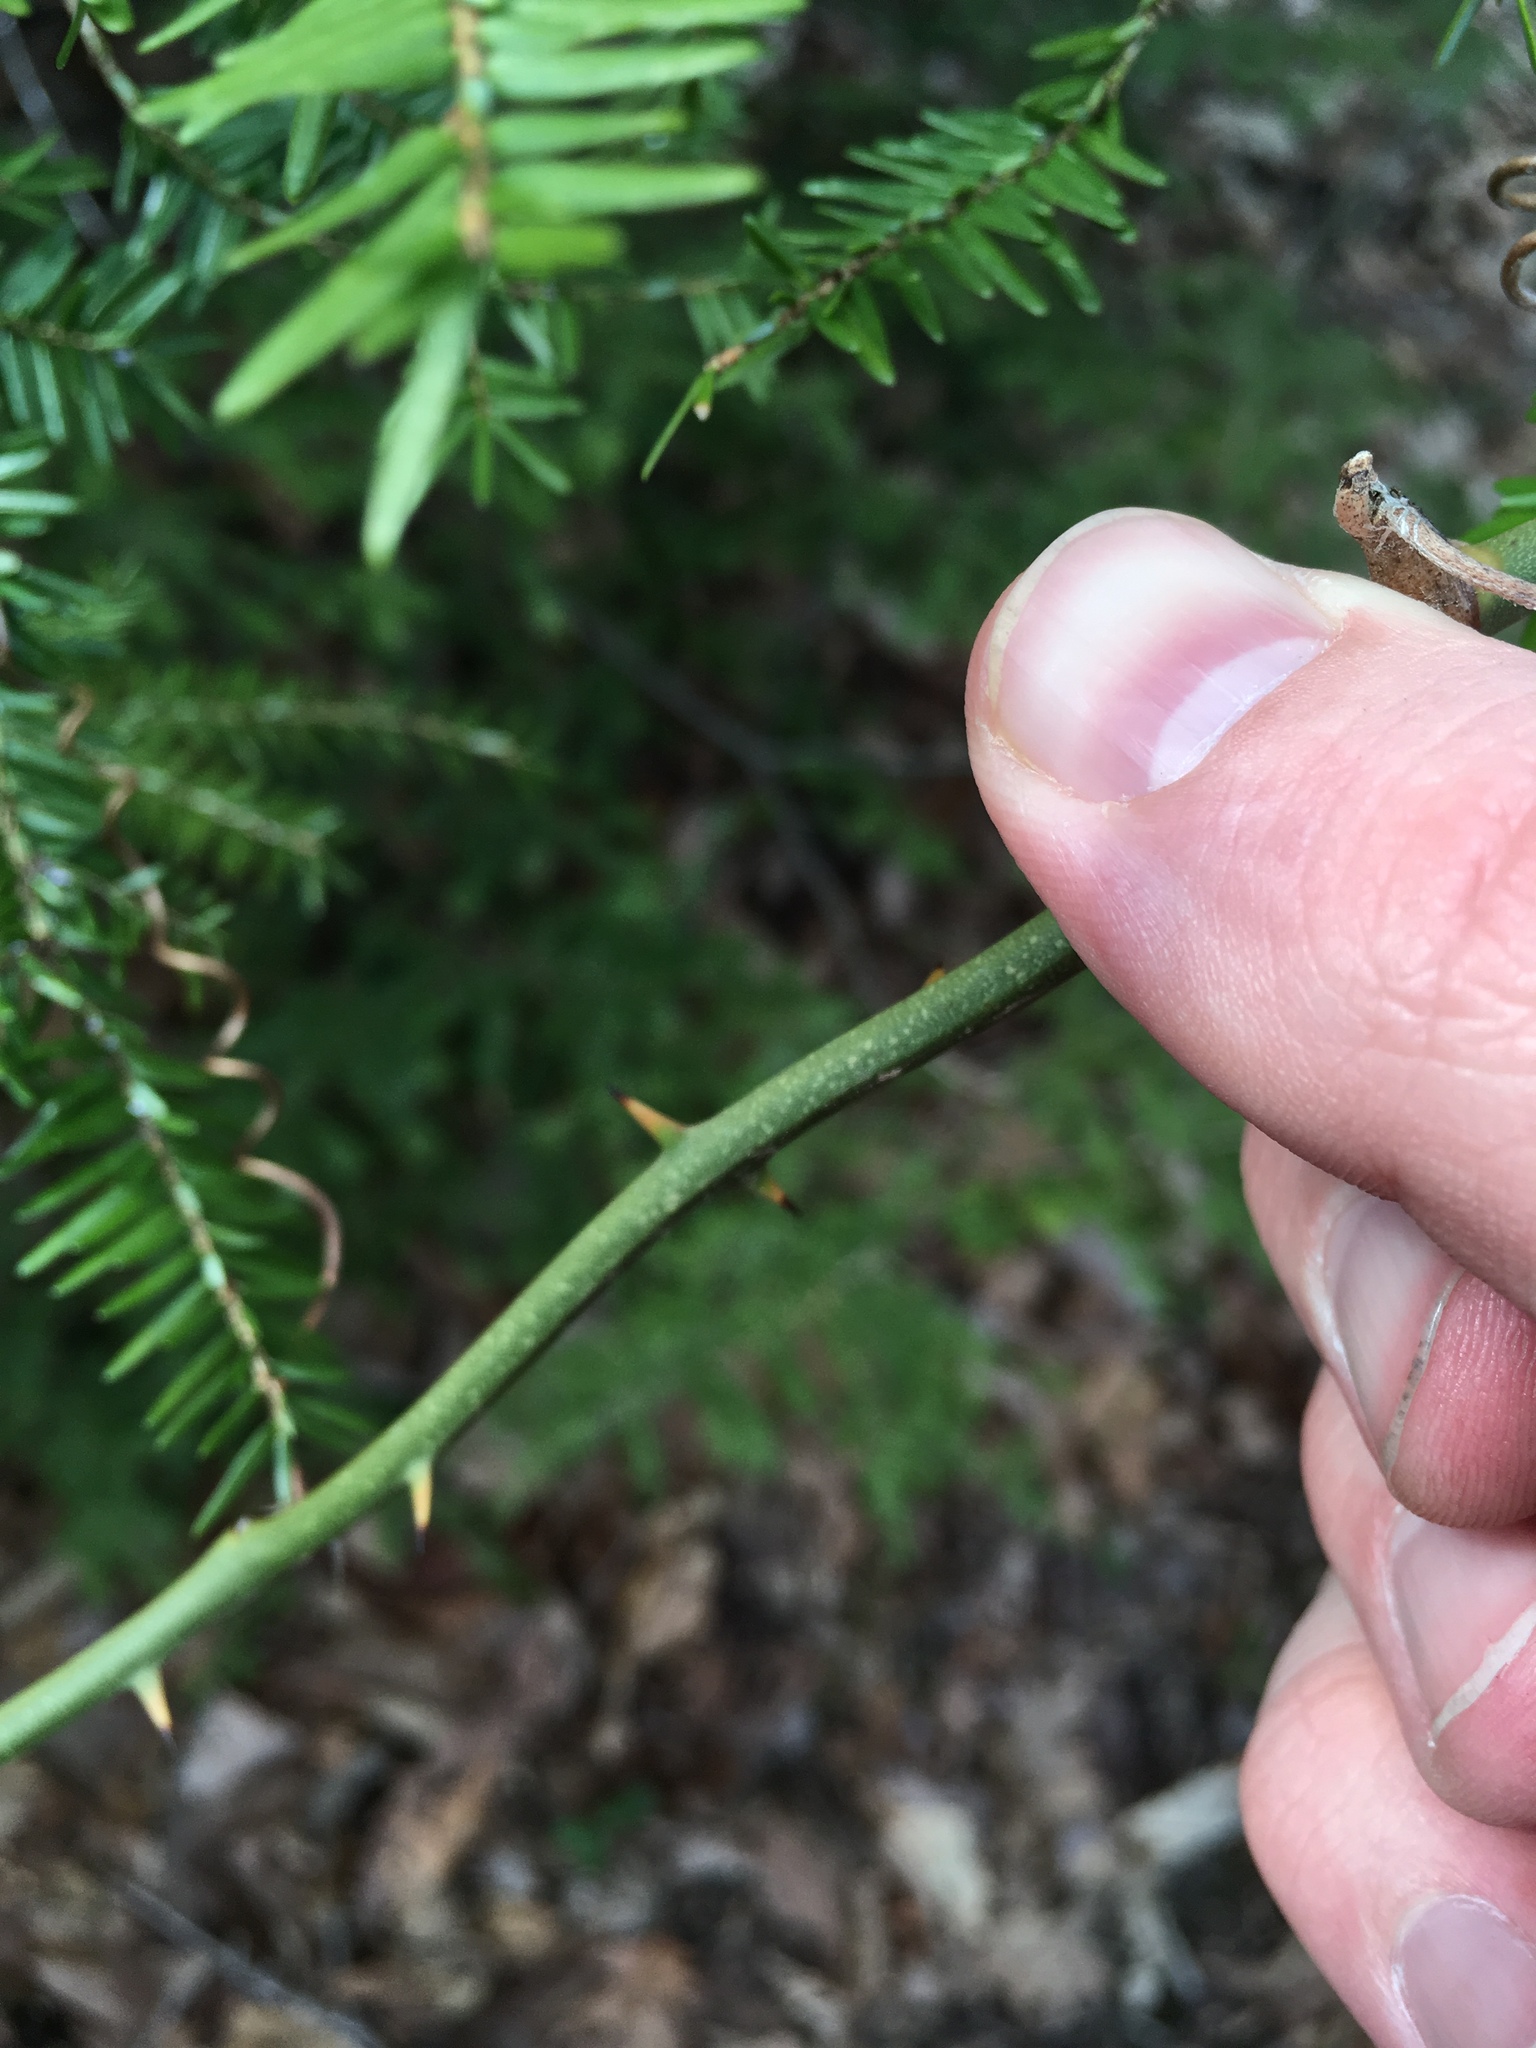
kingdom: Plantae
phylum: Tracheophyta
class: Liliopsida
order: Liliales
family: Smilacaceae
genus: Smilax
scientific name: Smilax rotundifolia
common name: Bullbriar
